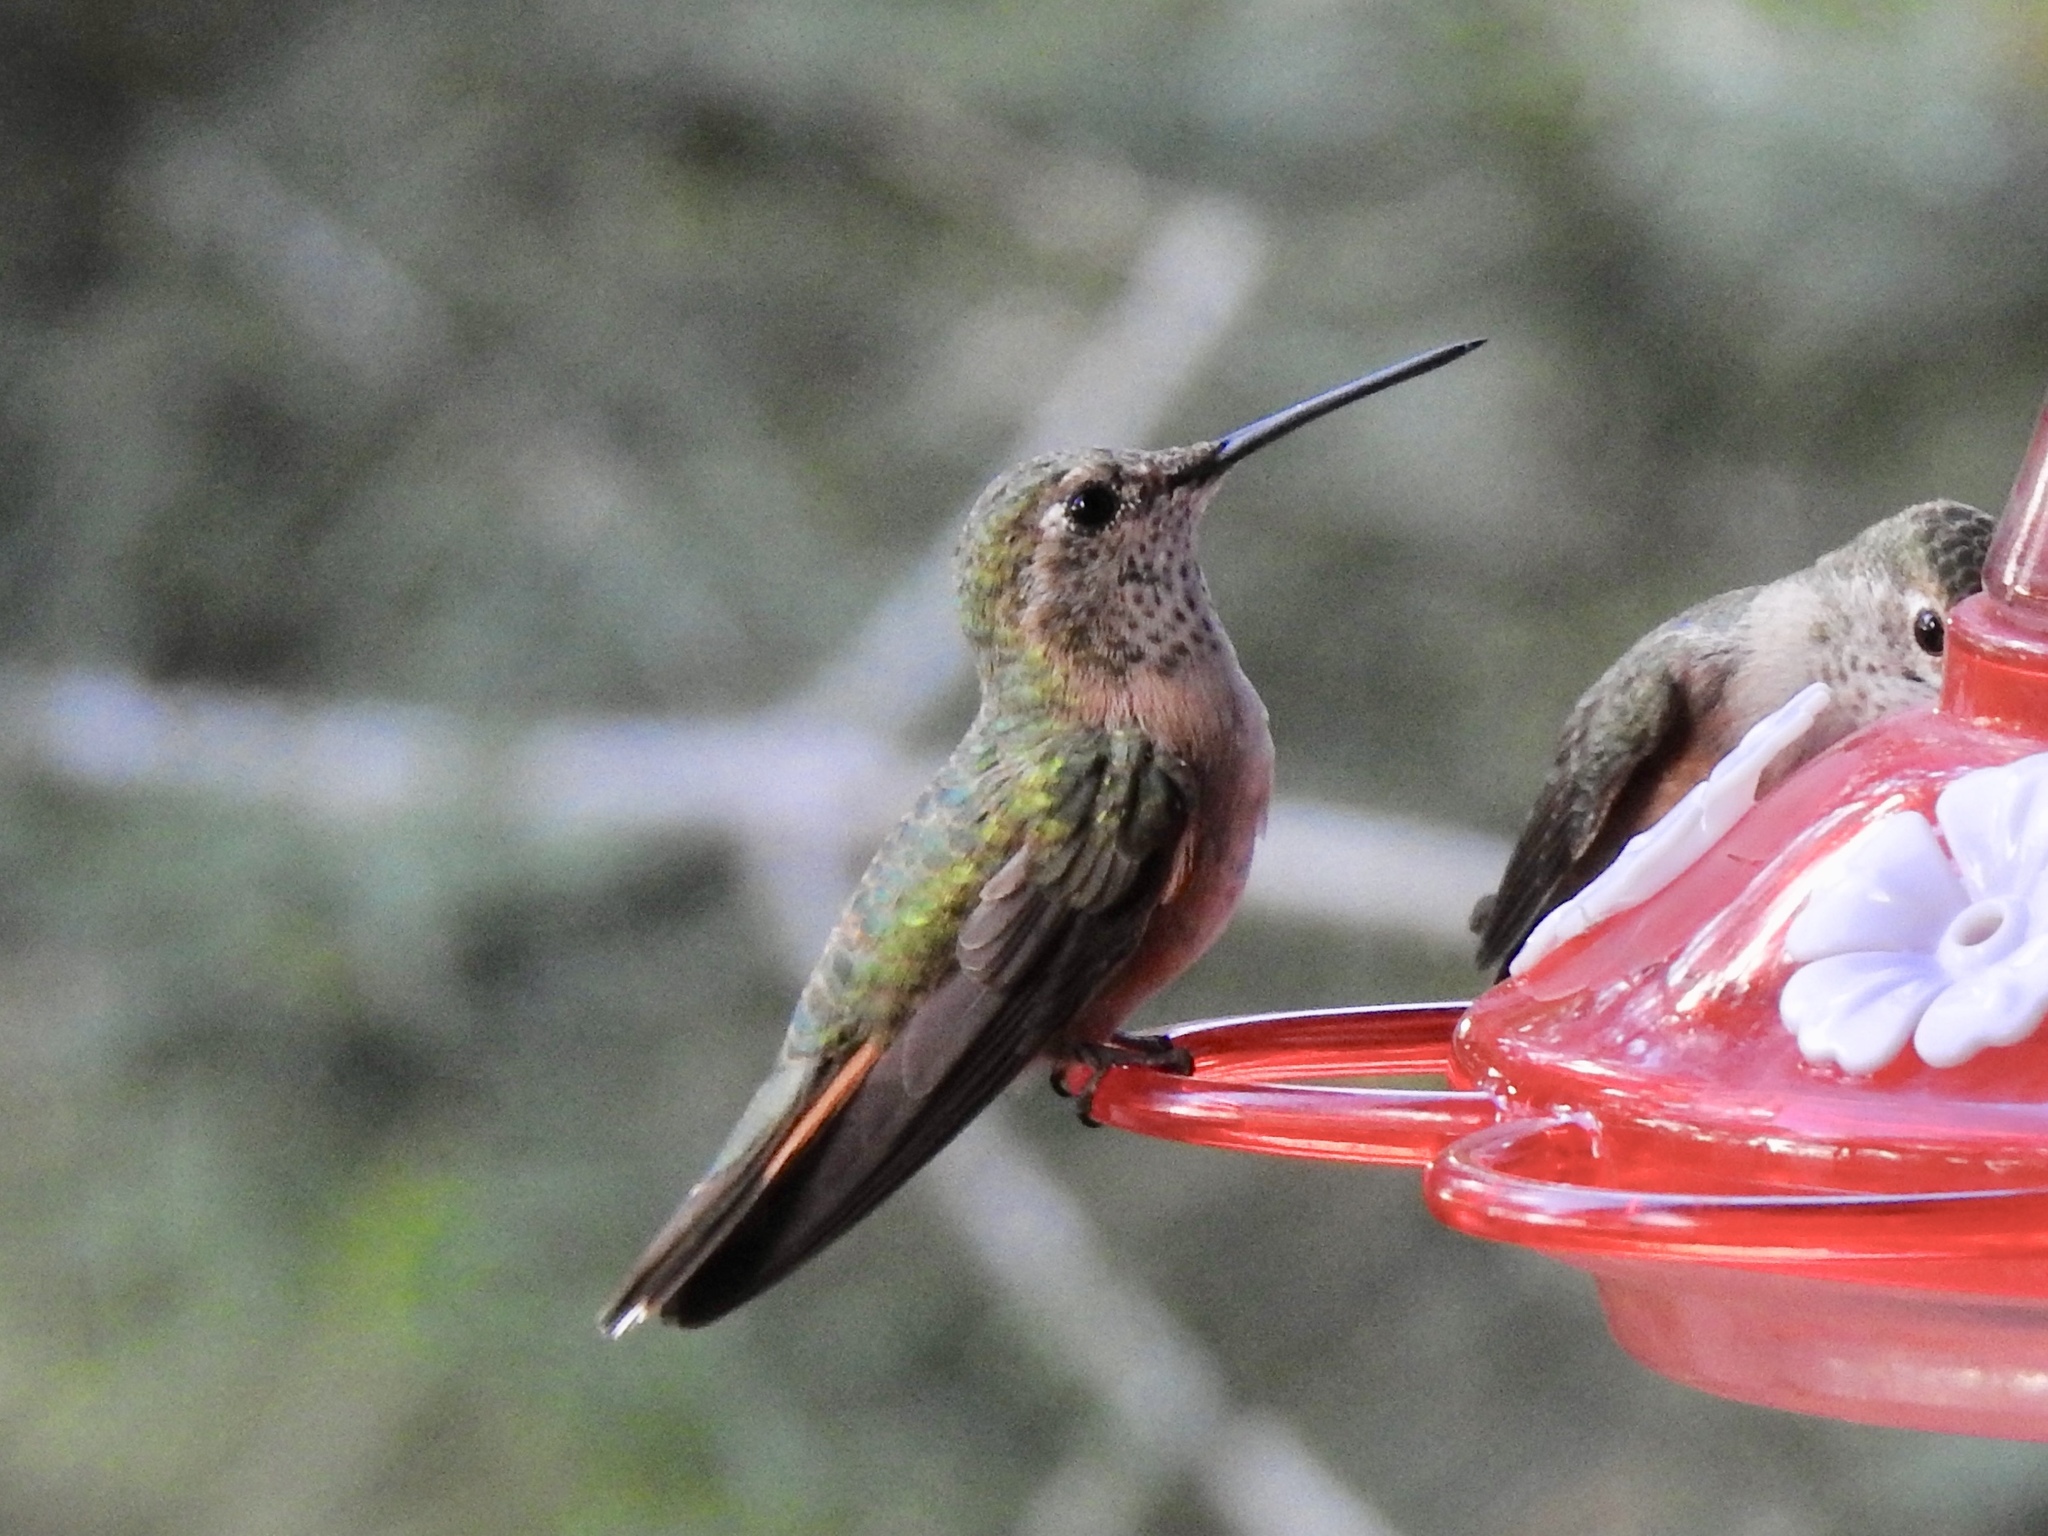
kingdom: Animalia
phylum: Chordata
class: Aves
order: Apodiformes
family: Trochilidae
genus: Selasphorus
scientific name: Selasphorus platycercus
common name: Broad-tailed hummingbird
